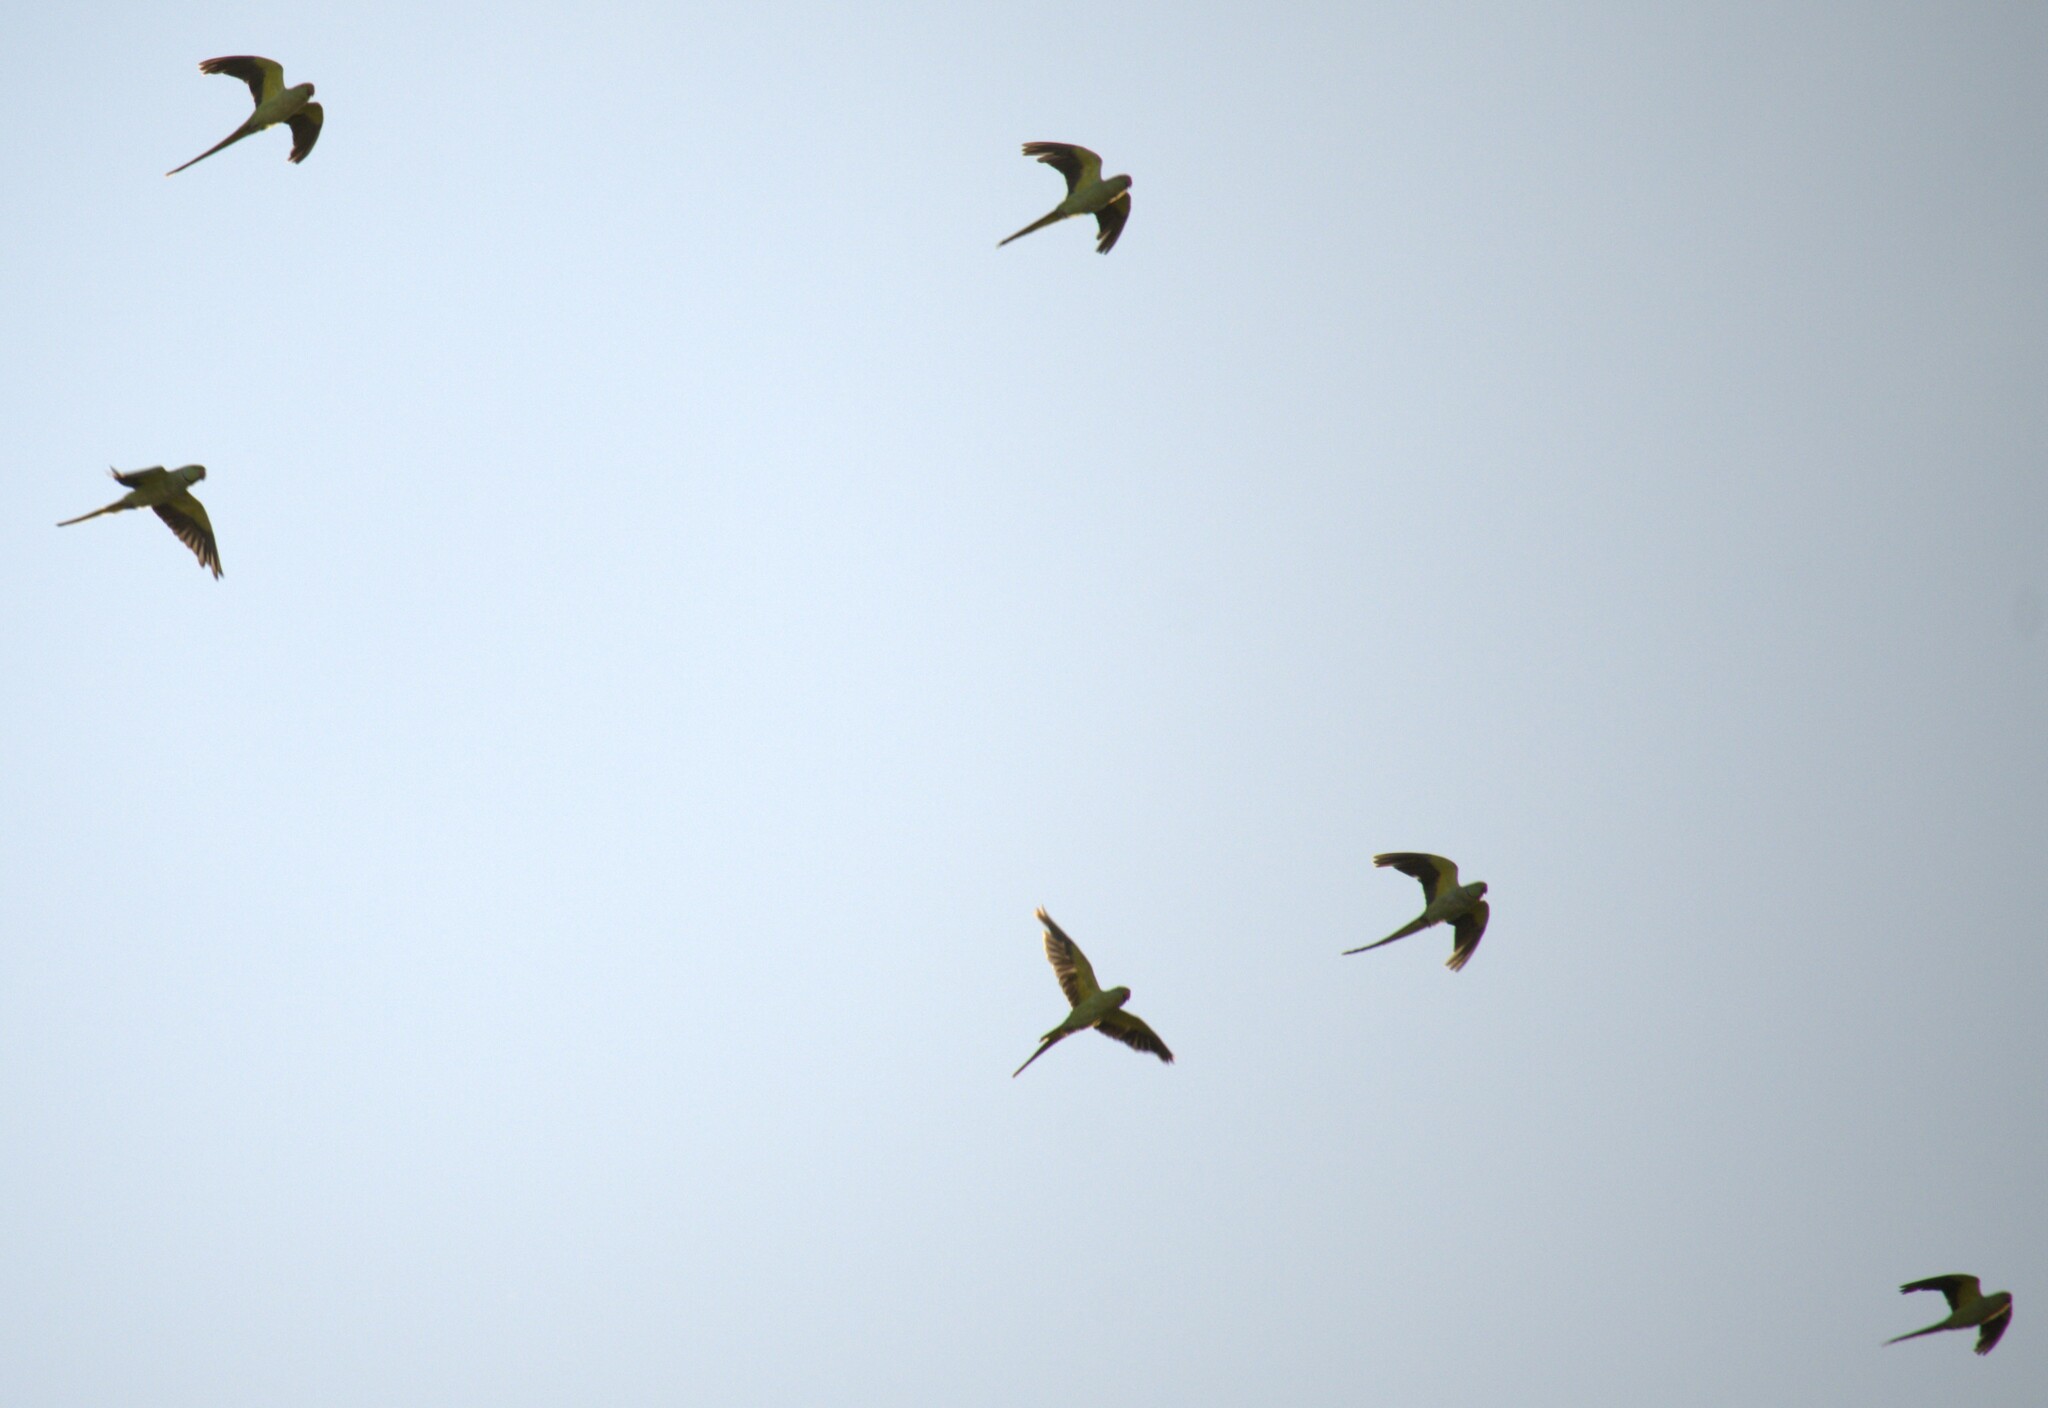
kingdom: Animalia
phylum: Chordata
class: Aves
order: Psittaciformes
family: Psittacidae
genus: Psittacula
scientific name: Psittacula krameri
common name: Rose-ringed parakeet
